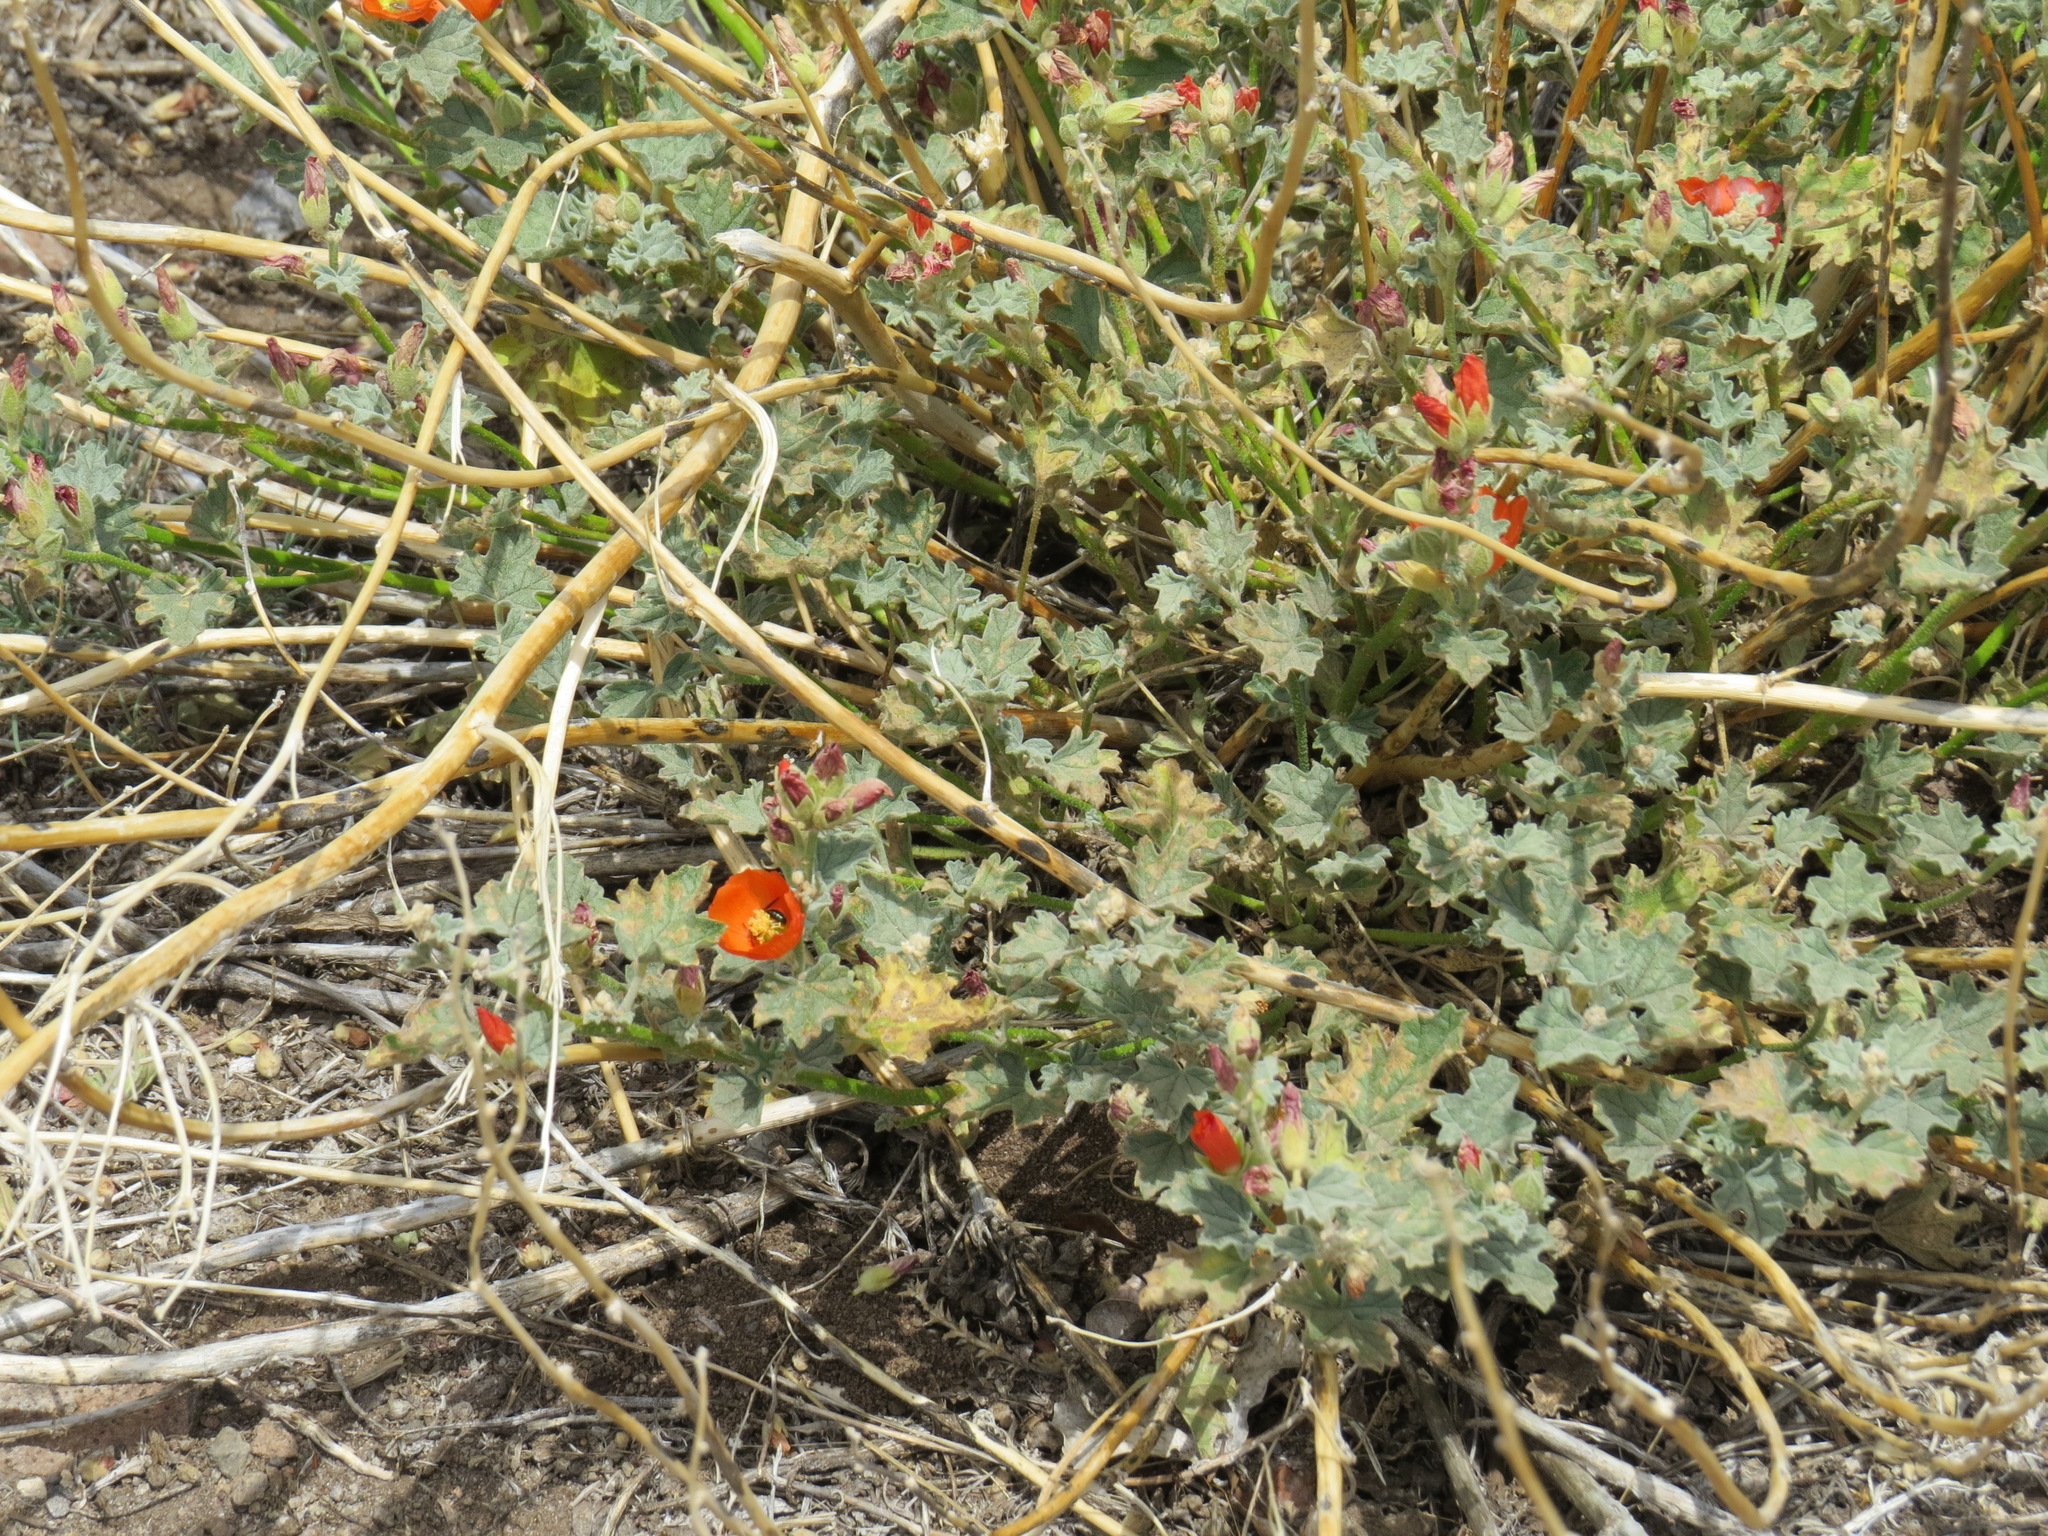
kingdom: Plantae
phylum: Tracheophyta
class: Magnoliopsida
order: Malvales
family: Malvaceae
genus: Sphaeralcea
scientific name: Sphaeralcea ambigua
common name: Apricot globe-mallow
